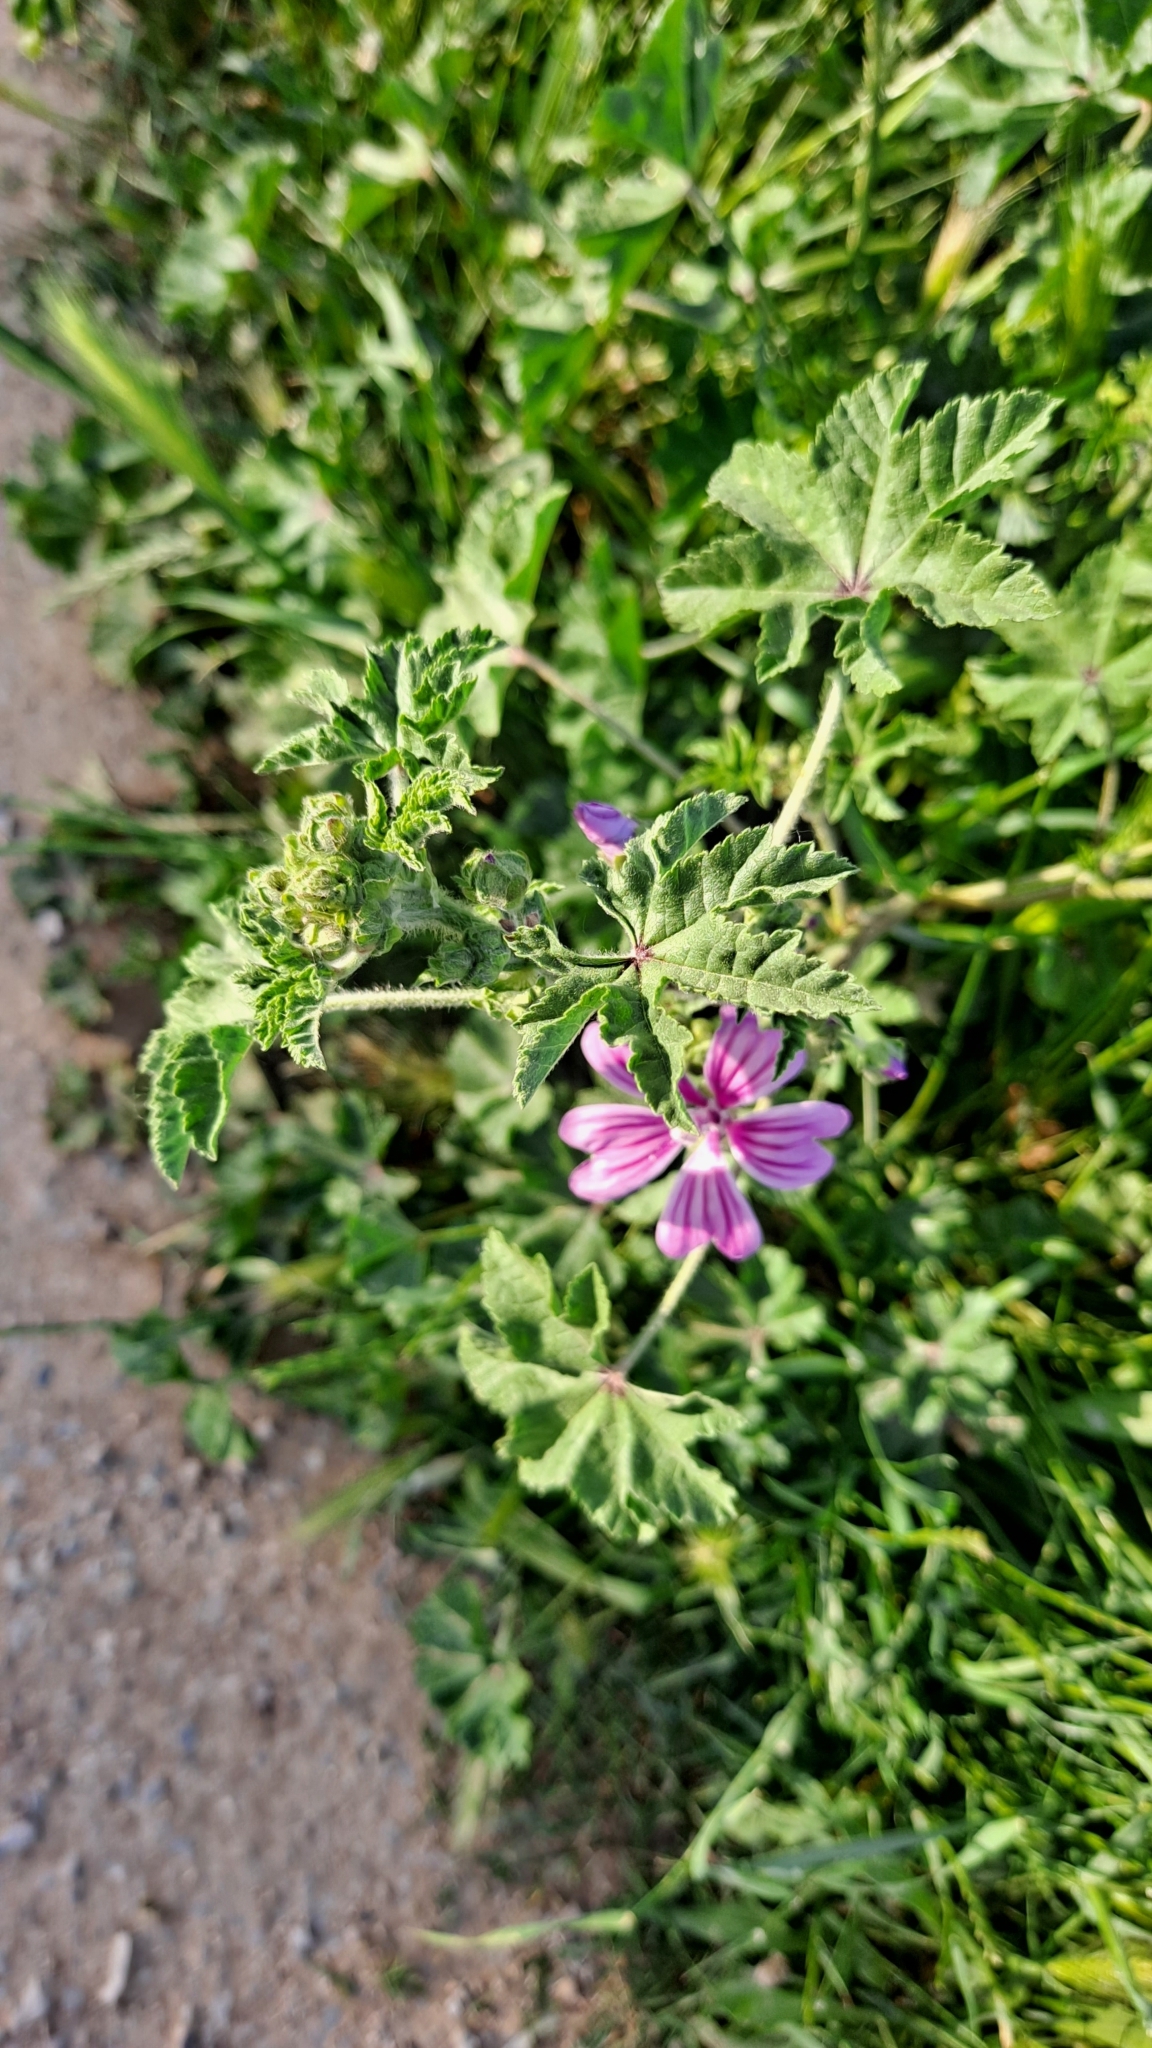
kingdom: Plantae
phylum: Tracheophyta
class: Magnoliopsida
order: Malvales
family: Malvaceae
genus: Malva
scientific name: Malva sylvestris
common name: Common mallow
